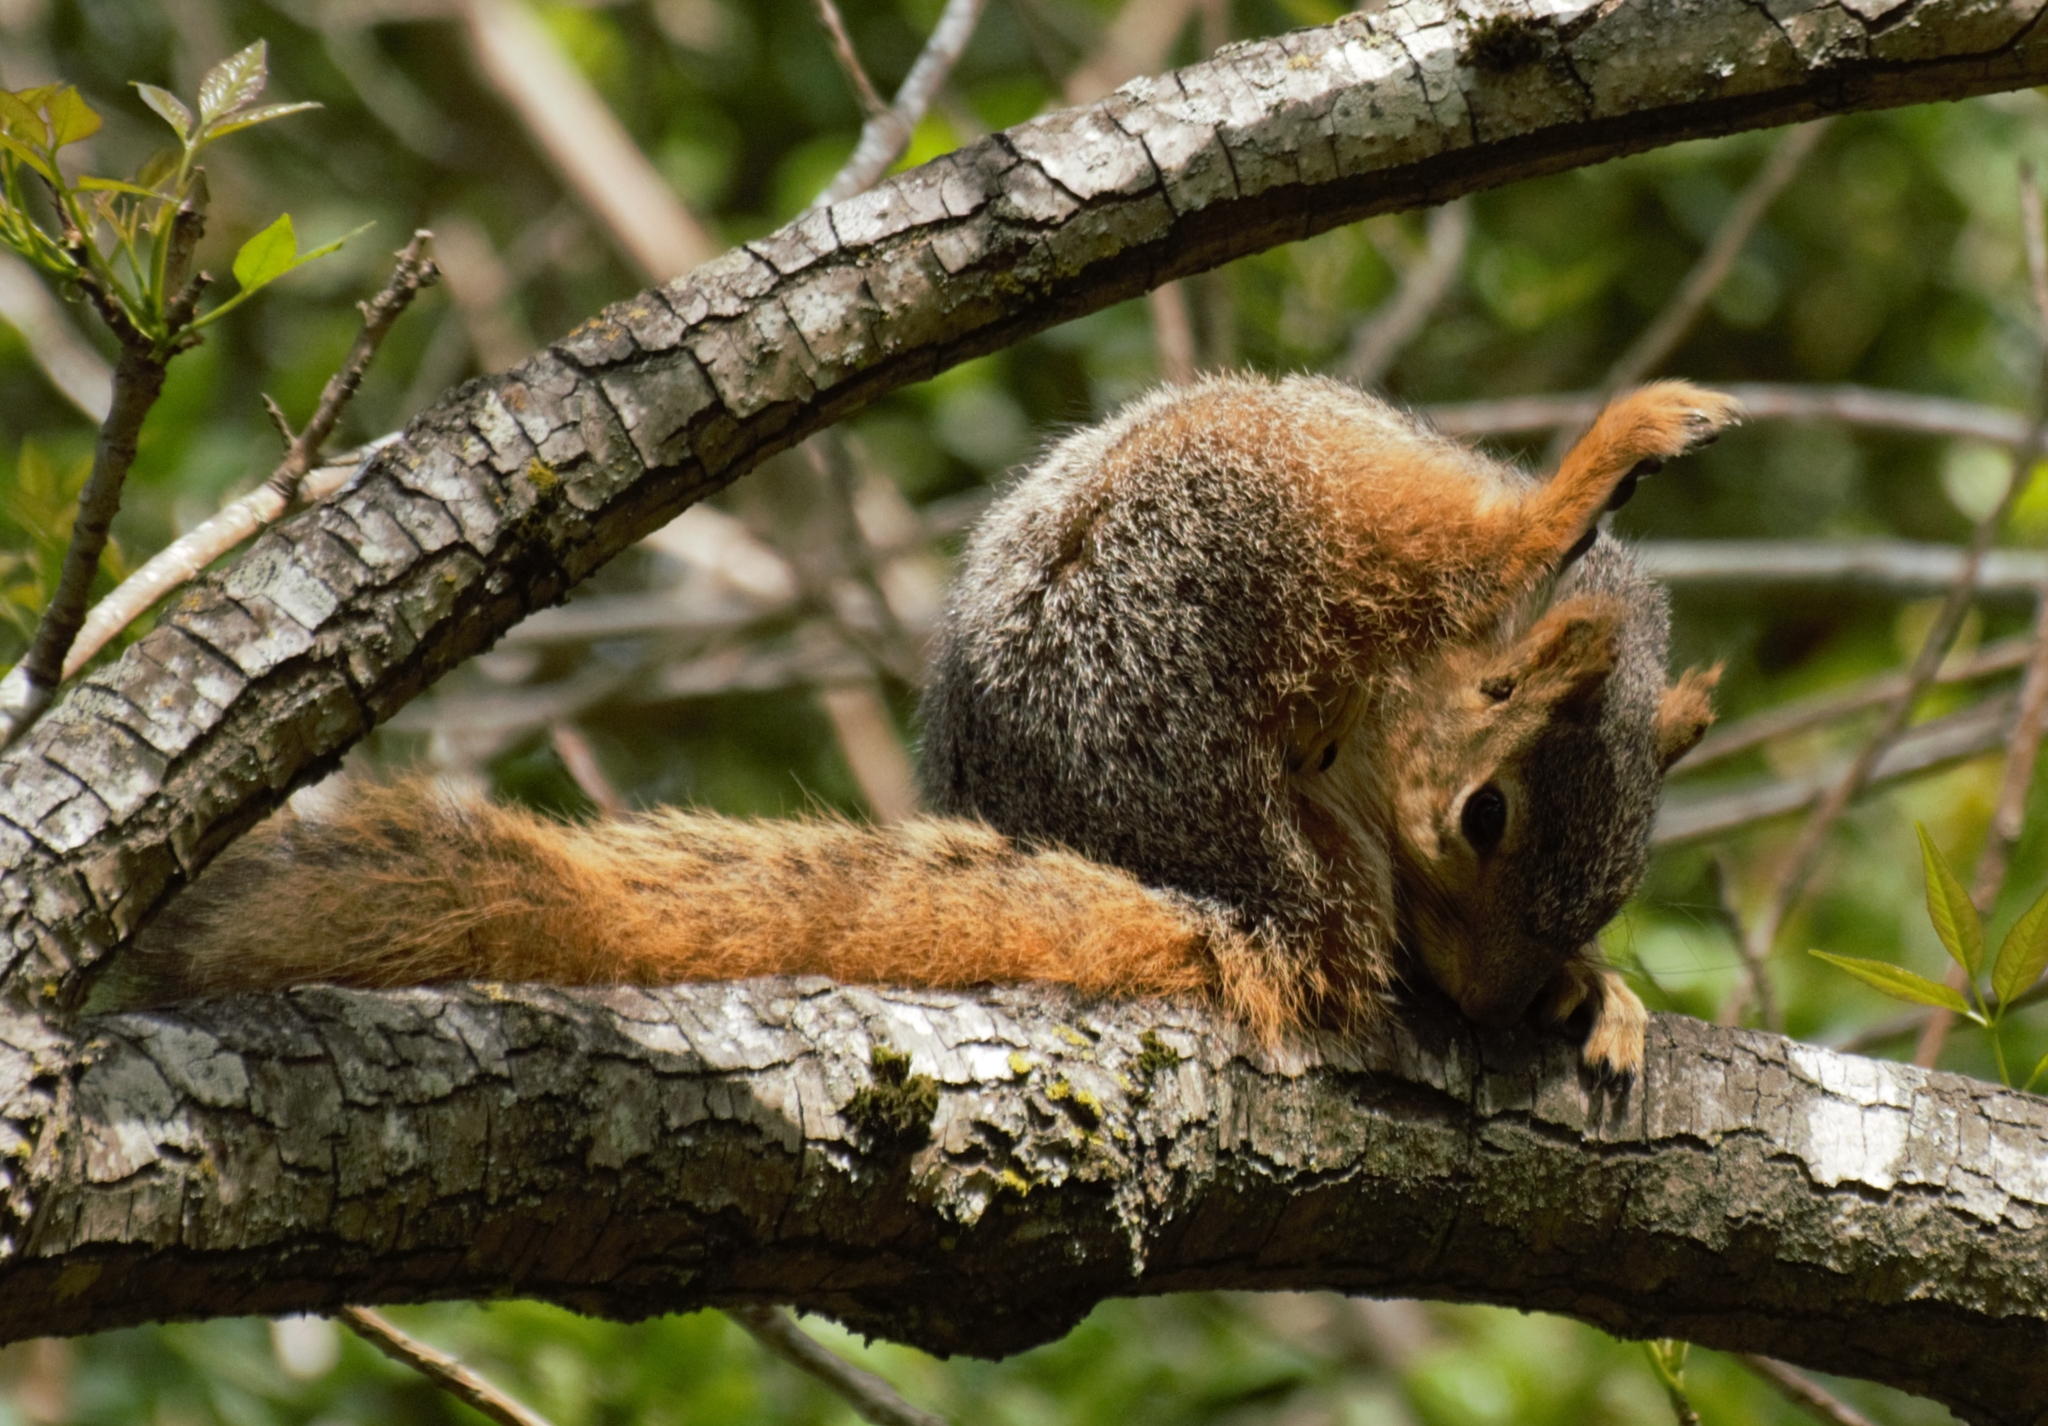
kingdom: Animalia
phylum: Chordata
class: Mammalia
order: Rodentia
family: Sciuridae
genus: Sciurus
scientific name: Sciurus niger
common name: Fox squirrel
